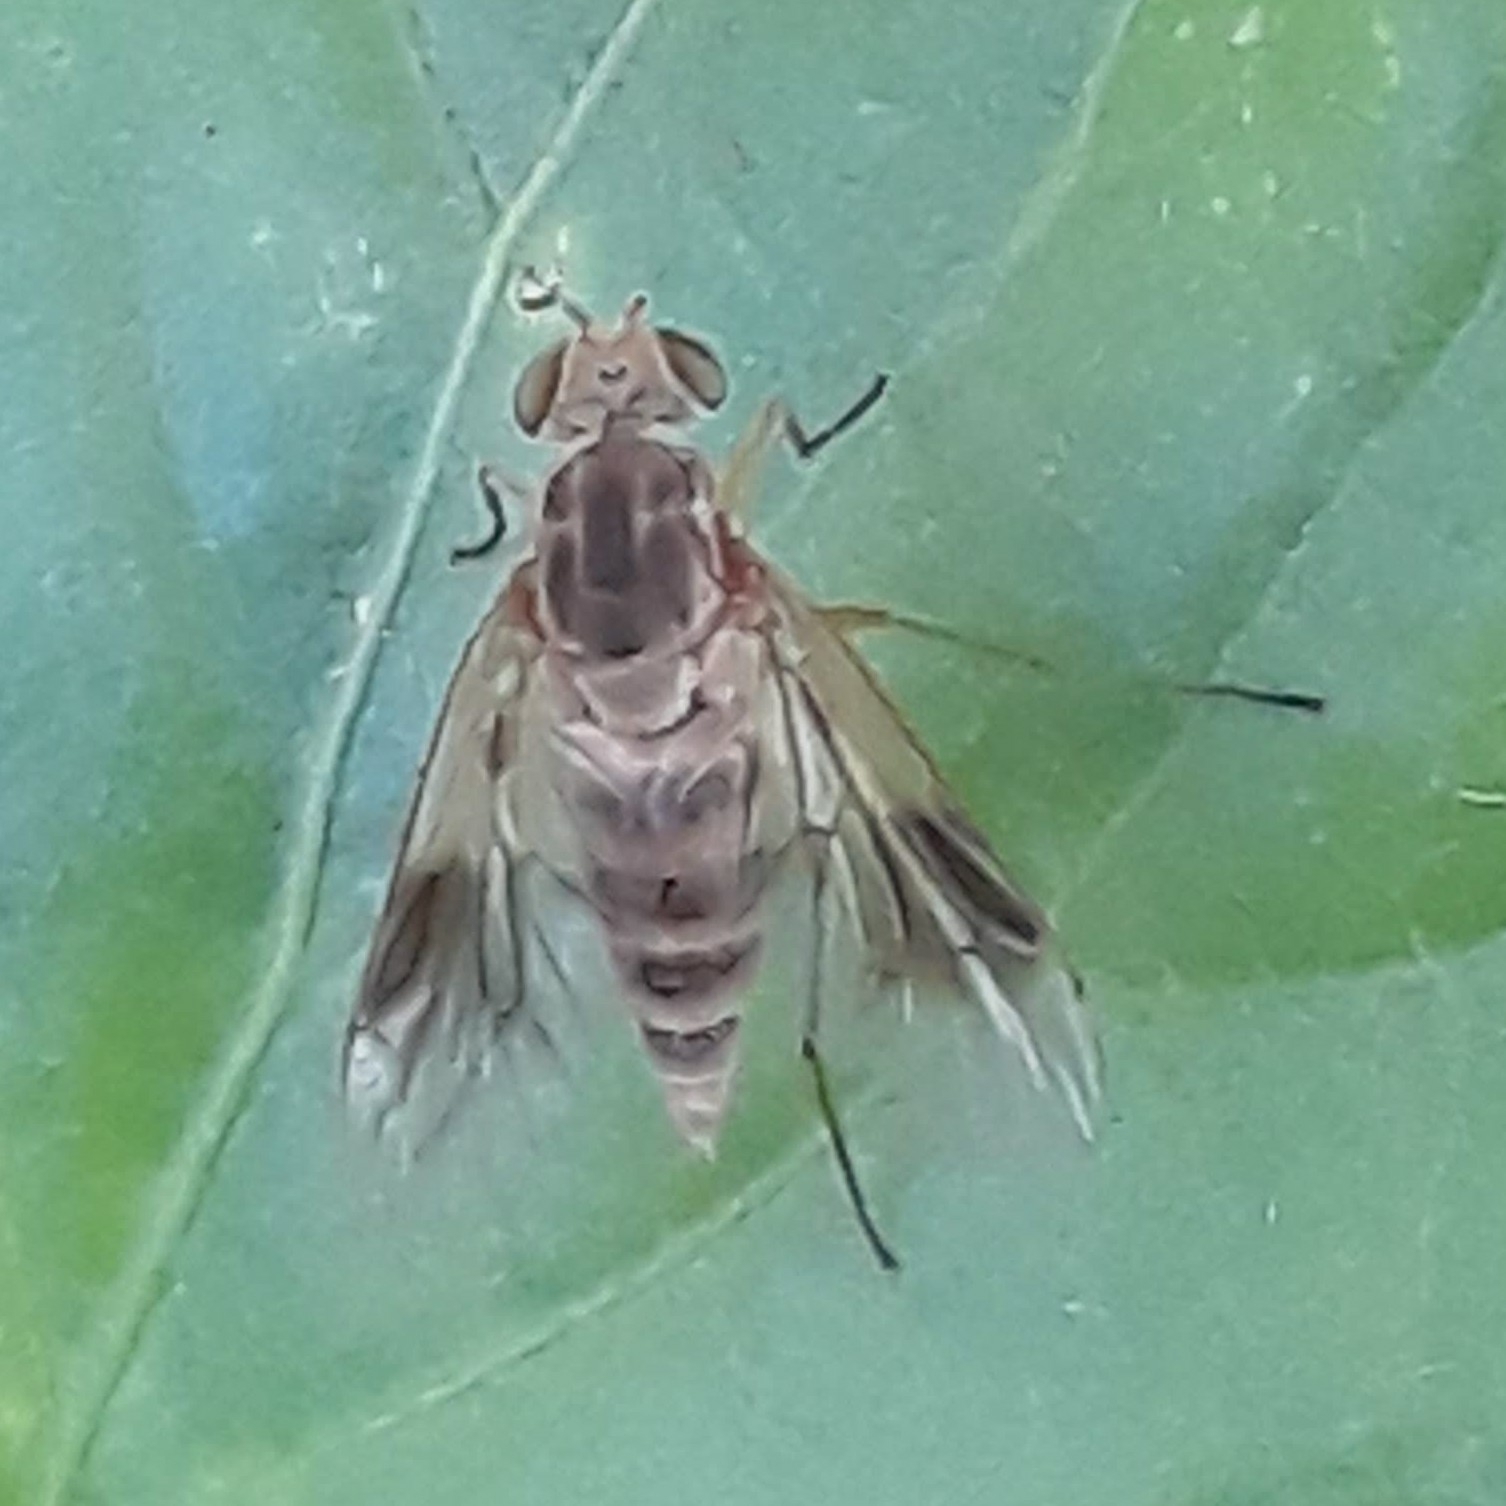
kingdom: Animalia
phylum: Arthropoda
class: Insecta
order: Diptera
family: Rhagionidae
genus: Chrysopilus
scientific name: Chrysopilus quadratus
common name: Quadrate snipe fly
